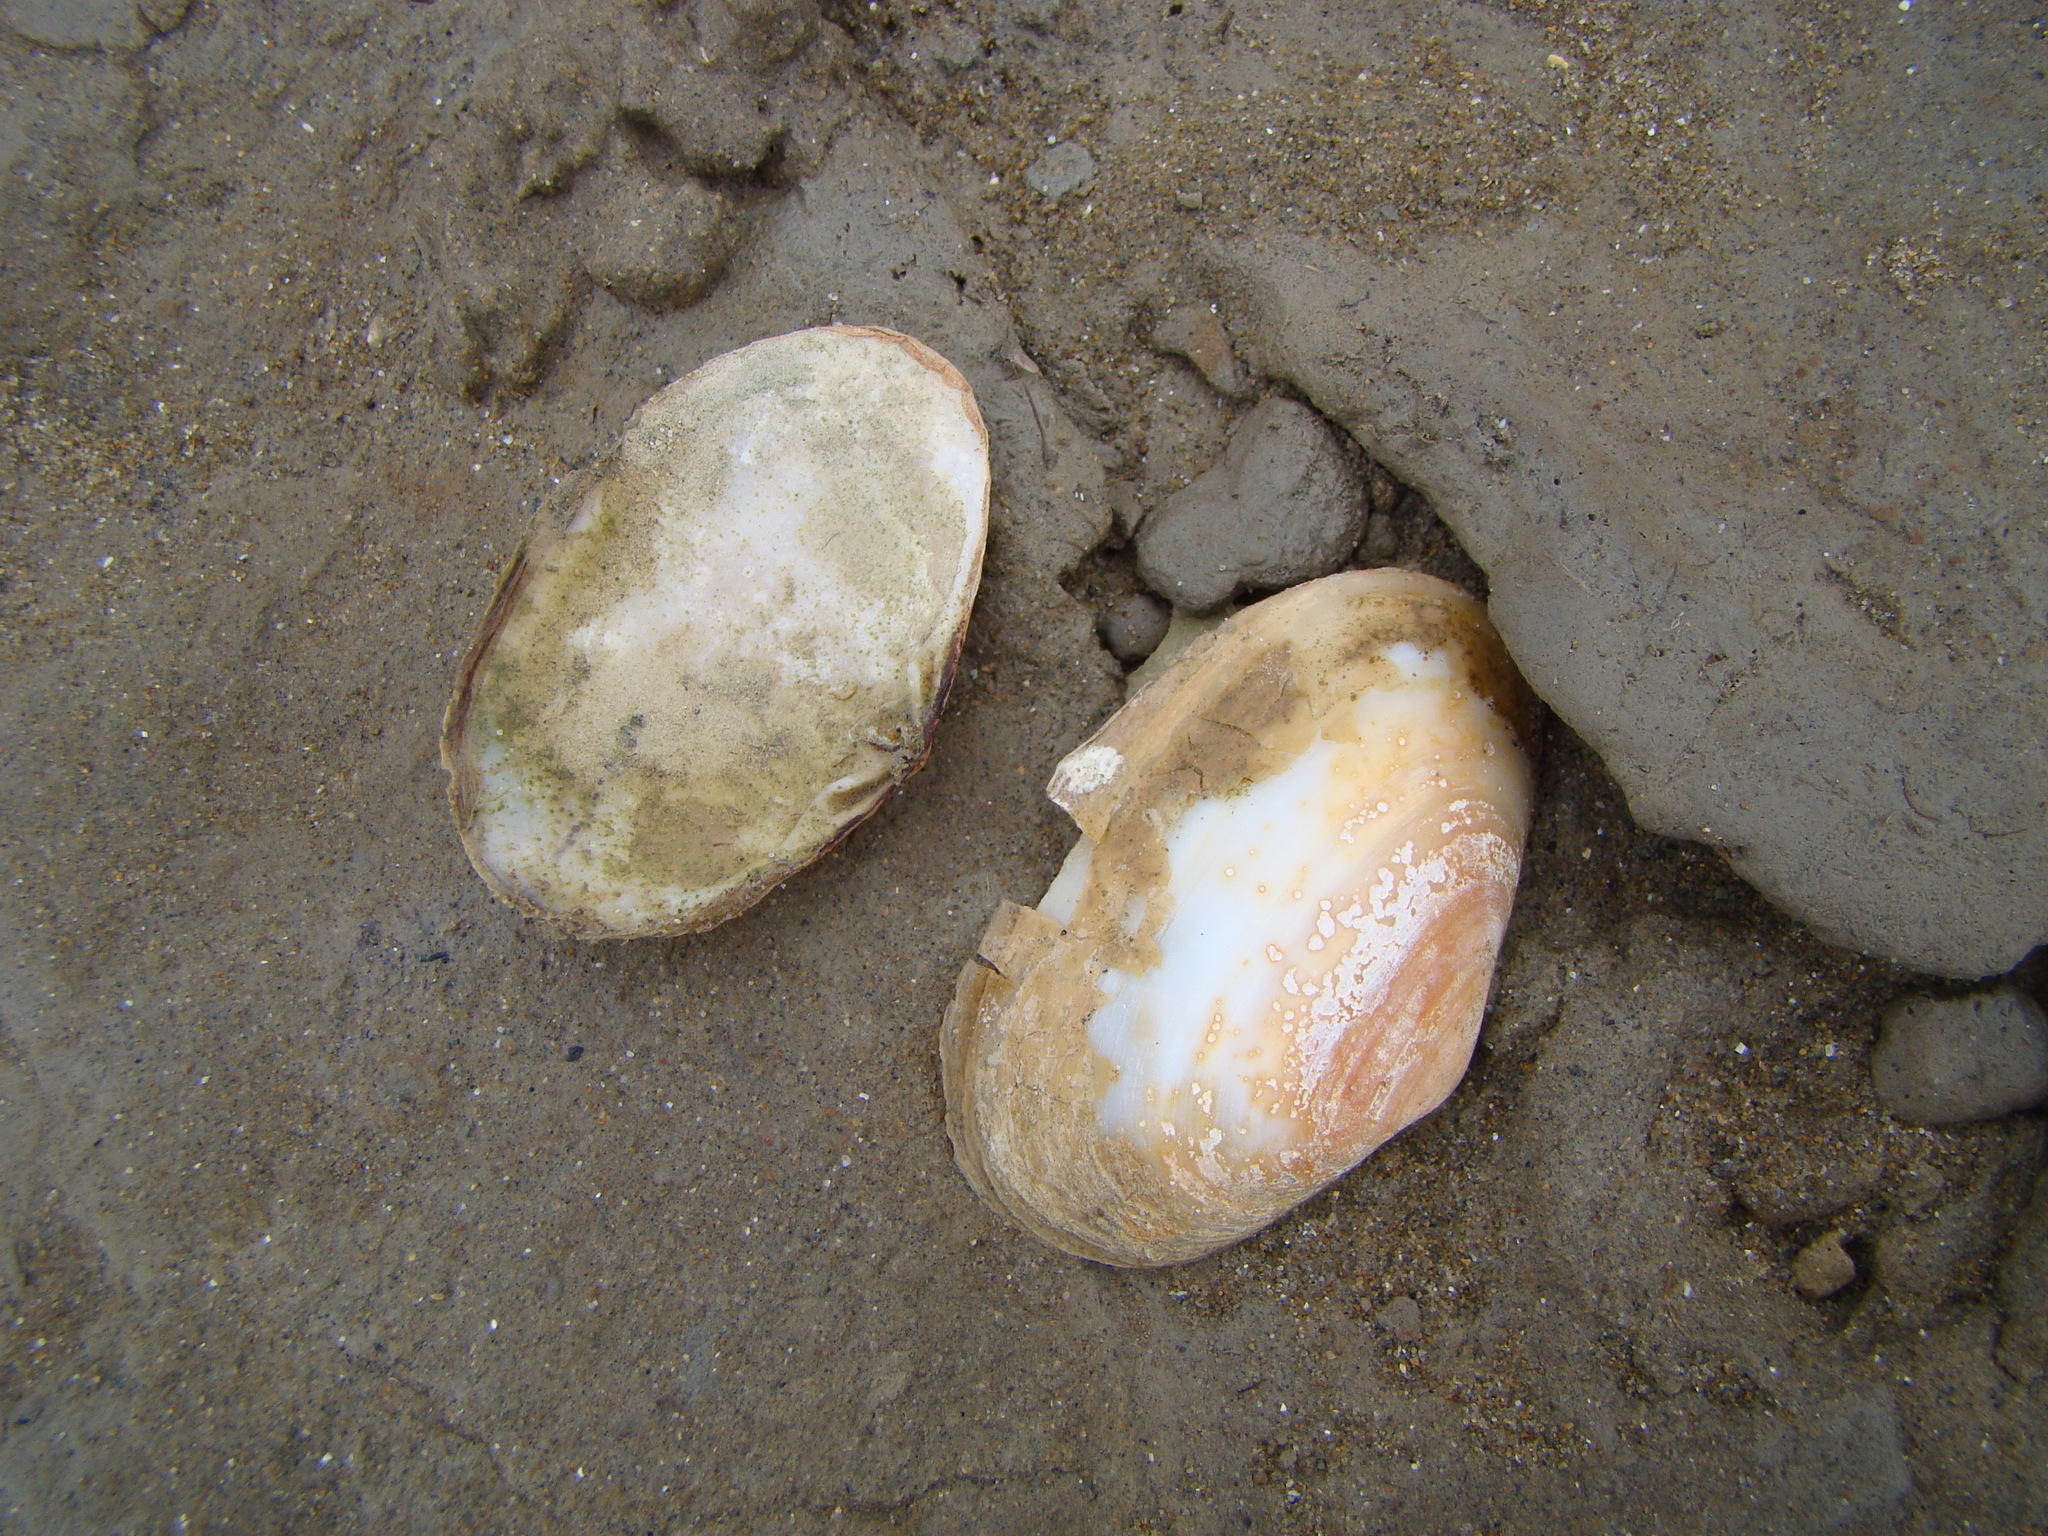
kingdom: Animalia
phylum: Mollusca
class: Bivalvia
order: Venerida
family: Mesodesmatidae
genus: Paphies
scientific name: Paphies australis
